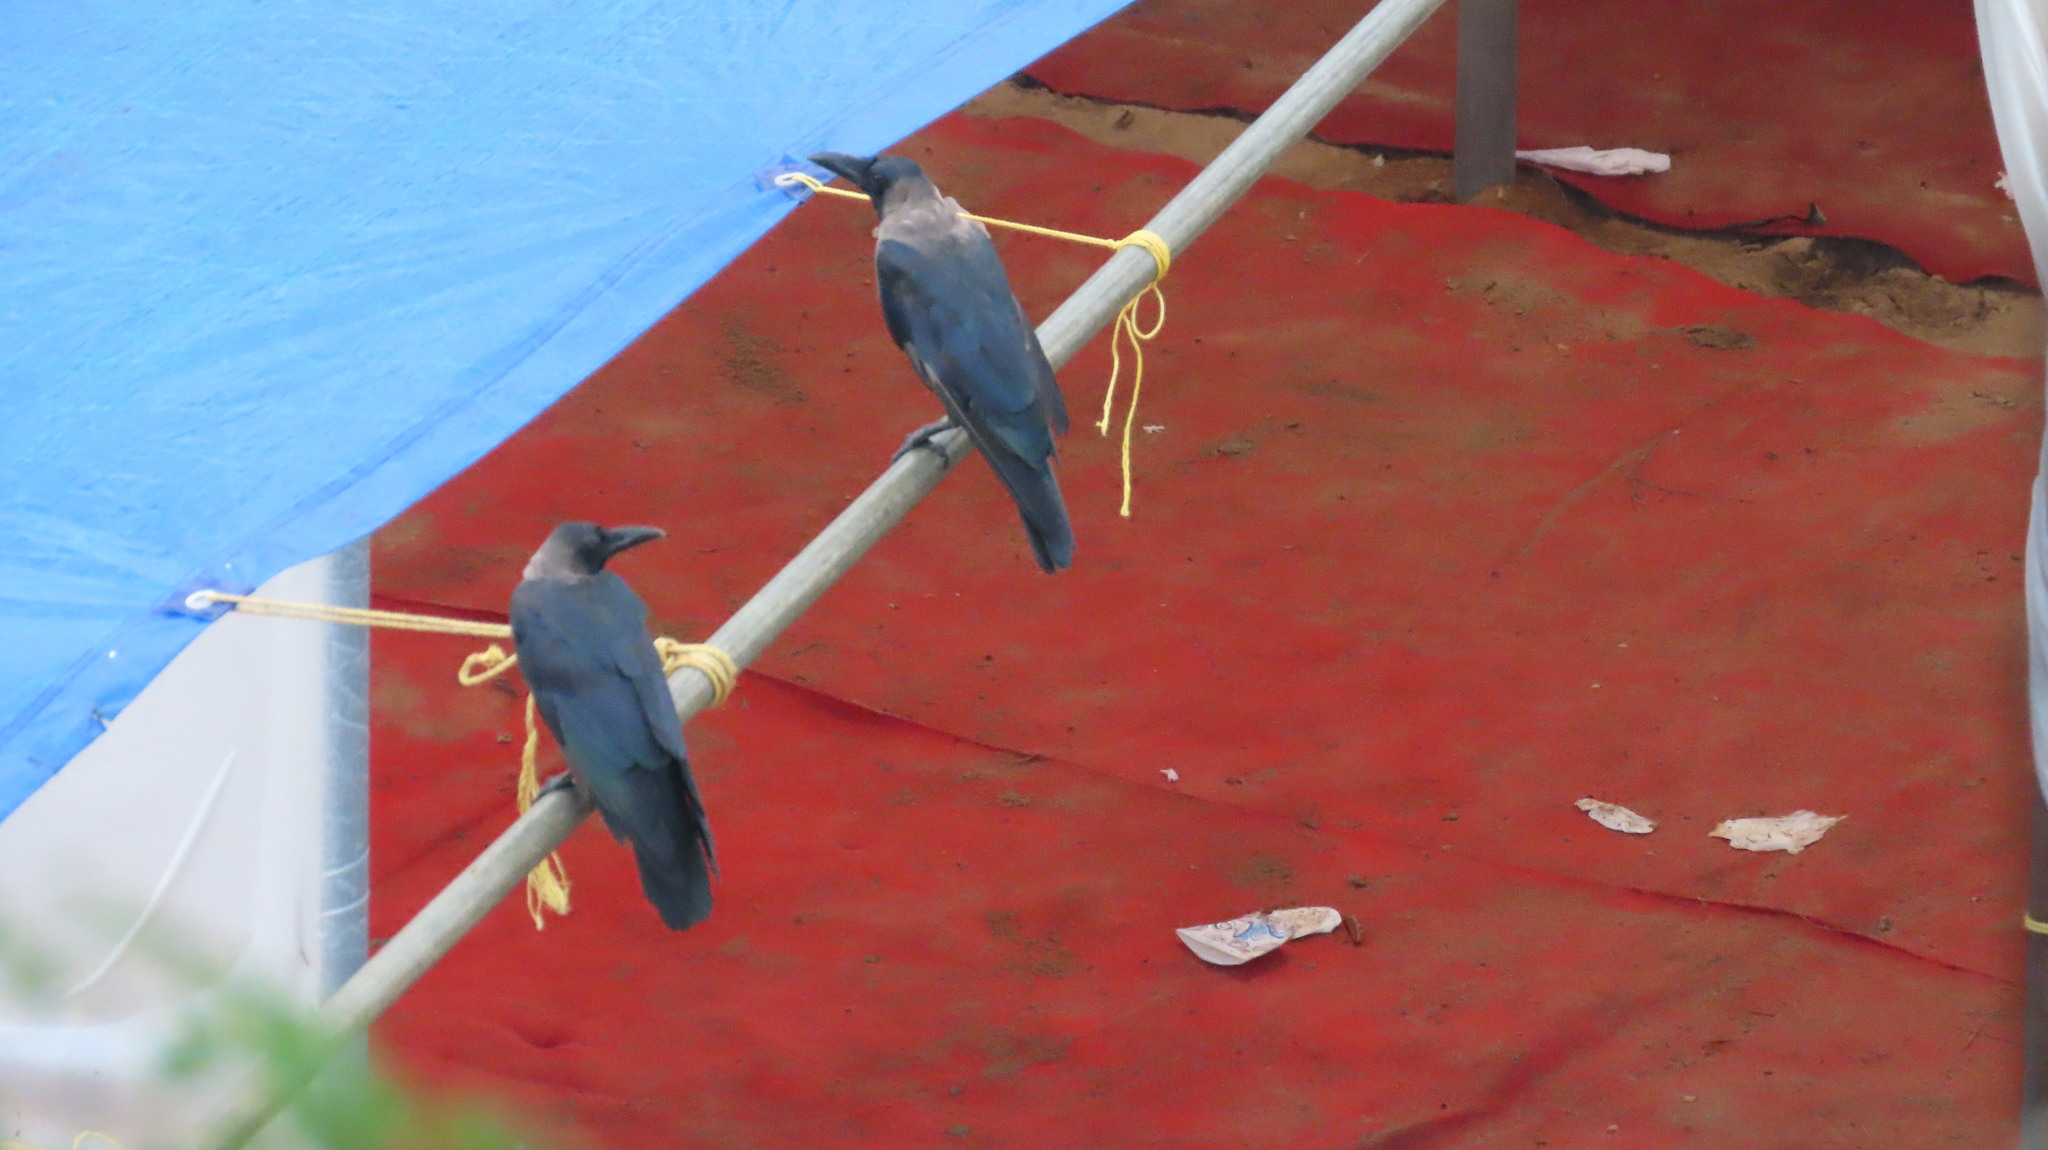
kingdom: Animalia
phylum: Chordata
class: Aves
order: Passeriformes
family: Corvidae
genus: Corvus
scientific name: Corvus splendens
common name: House crow
